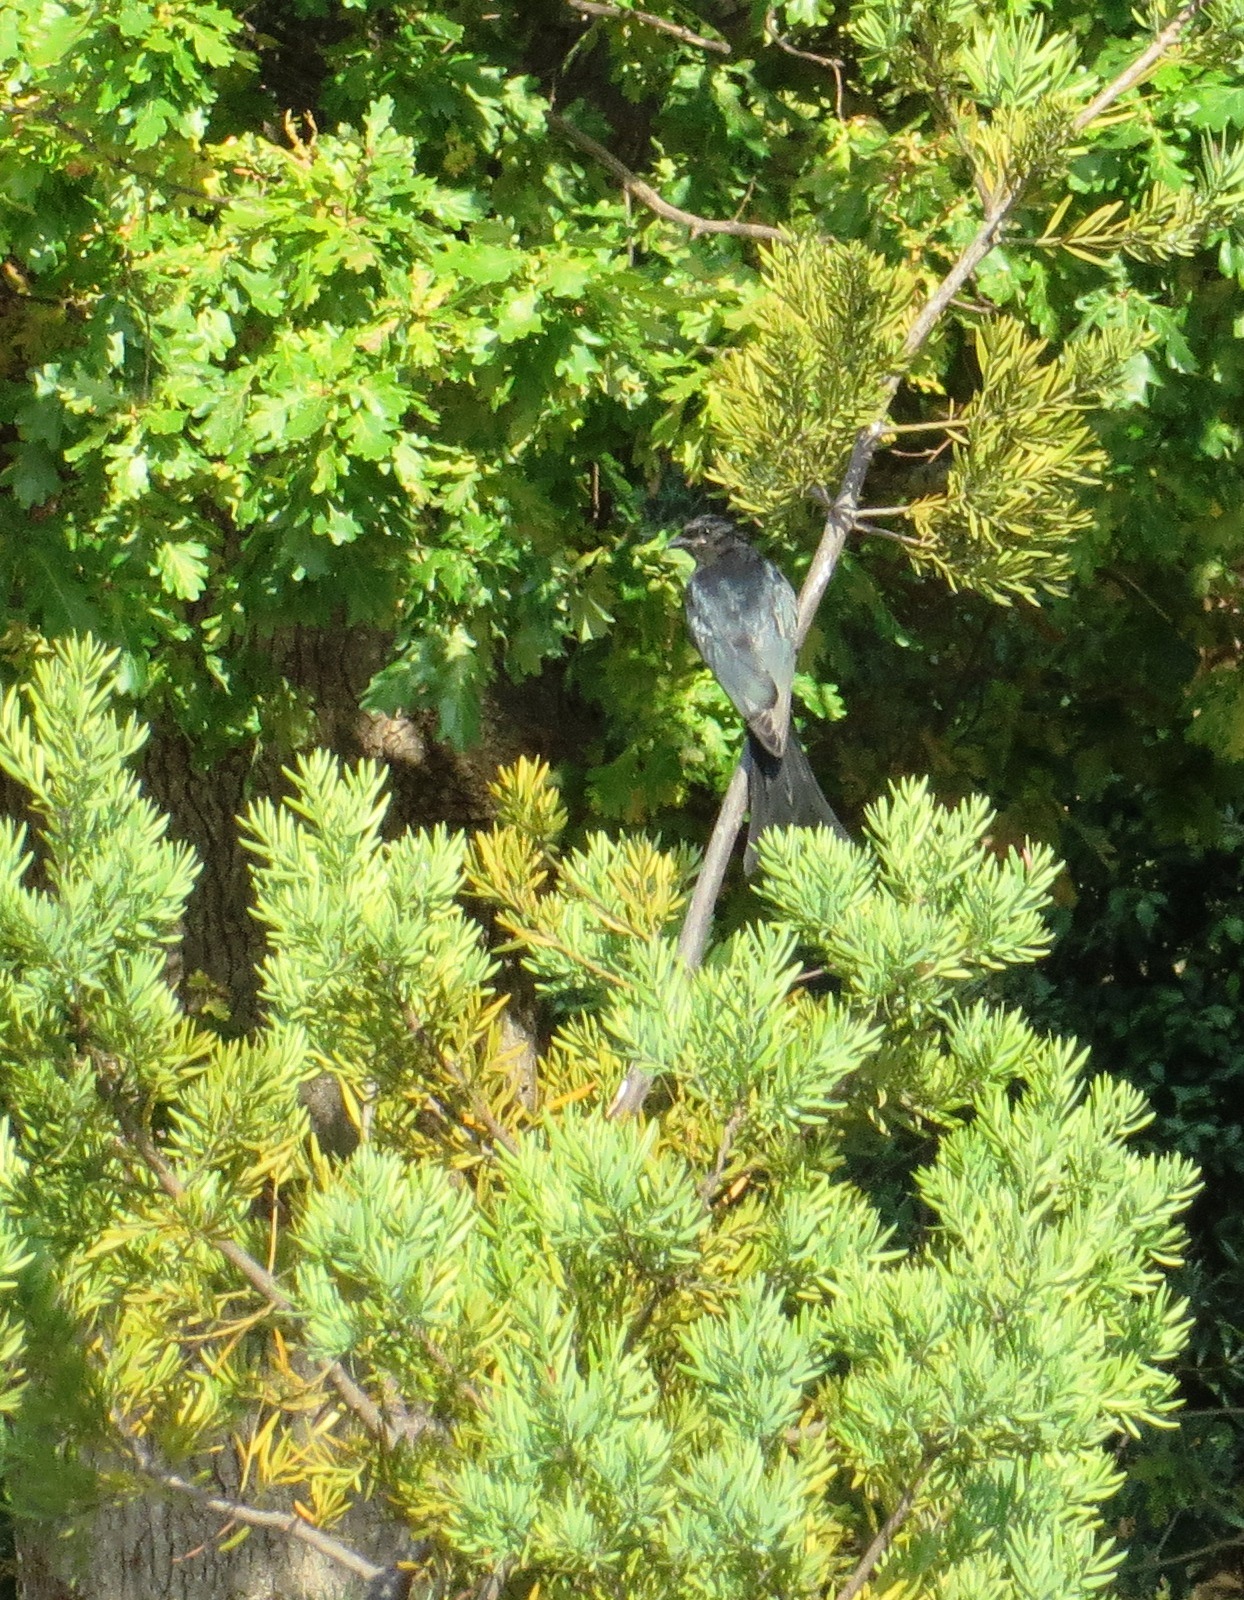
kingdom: Animalia
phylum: Chordata
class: Aves
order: Passeriformes
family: Dicruridae
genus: Dicrurus
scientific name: Dicrurus adsimilis
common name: Fork-tailed drongo
